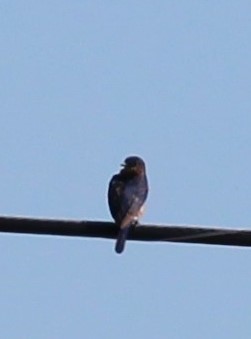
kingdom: Animalia
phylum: Chordata
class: Aves
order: Passeriformes
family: Turdidae
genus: Sialia
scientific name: Sialia sialis
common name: Eastern bluebird
